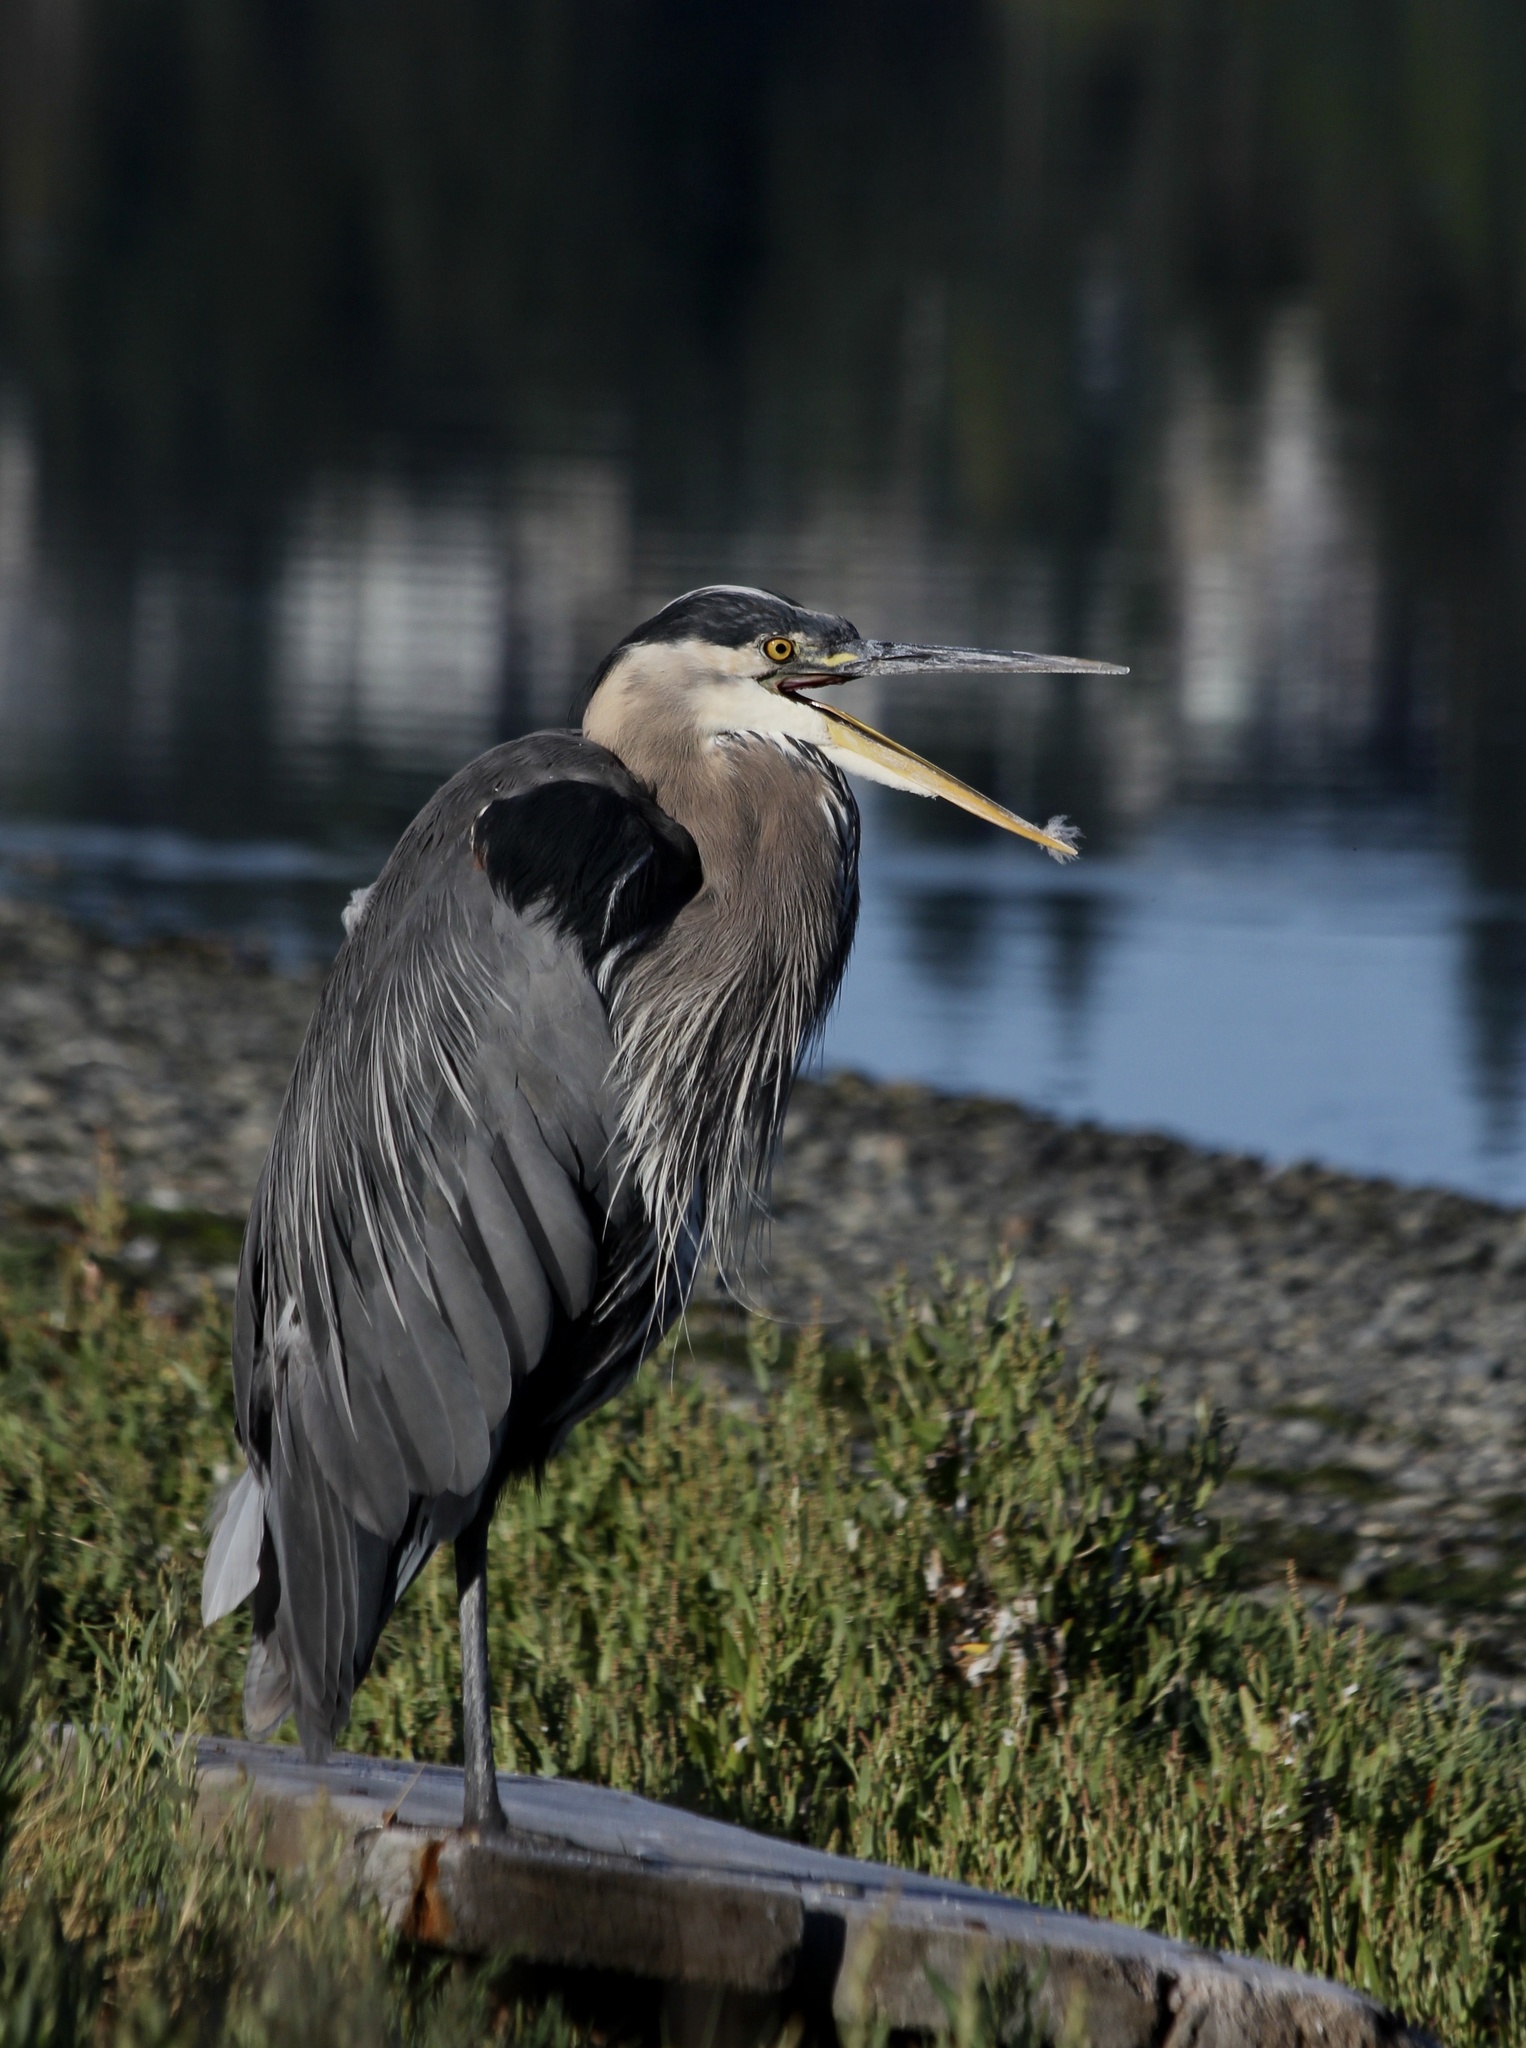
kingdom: Animalia
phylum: Chordata
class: Aves
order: Pelecaniformes
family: Ardeidae
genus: Ardea
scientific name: Ardea herodias
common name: Great blue heron
